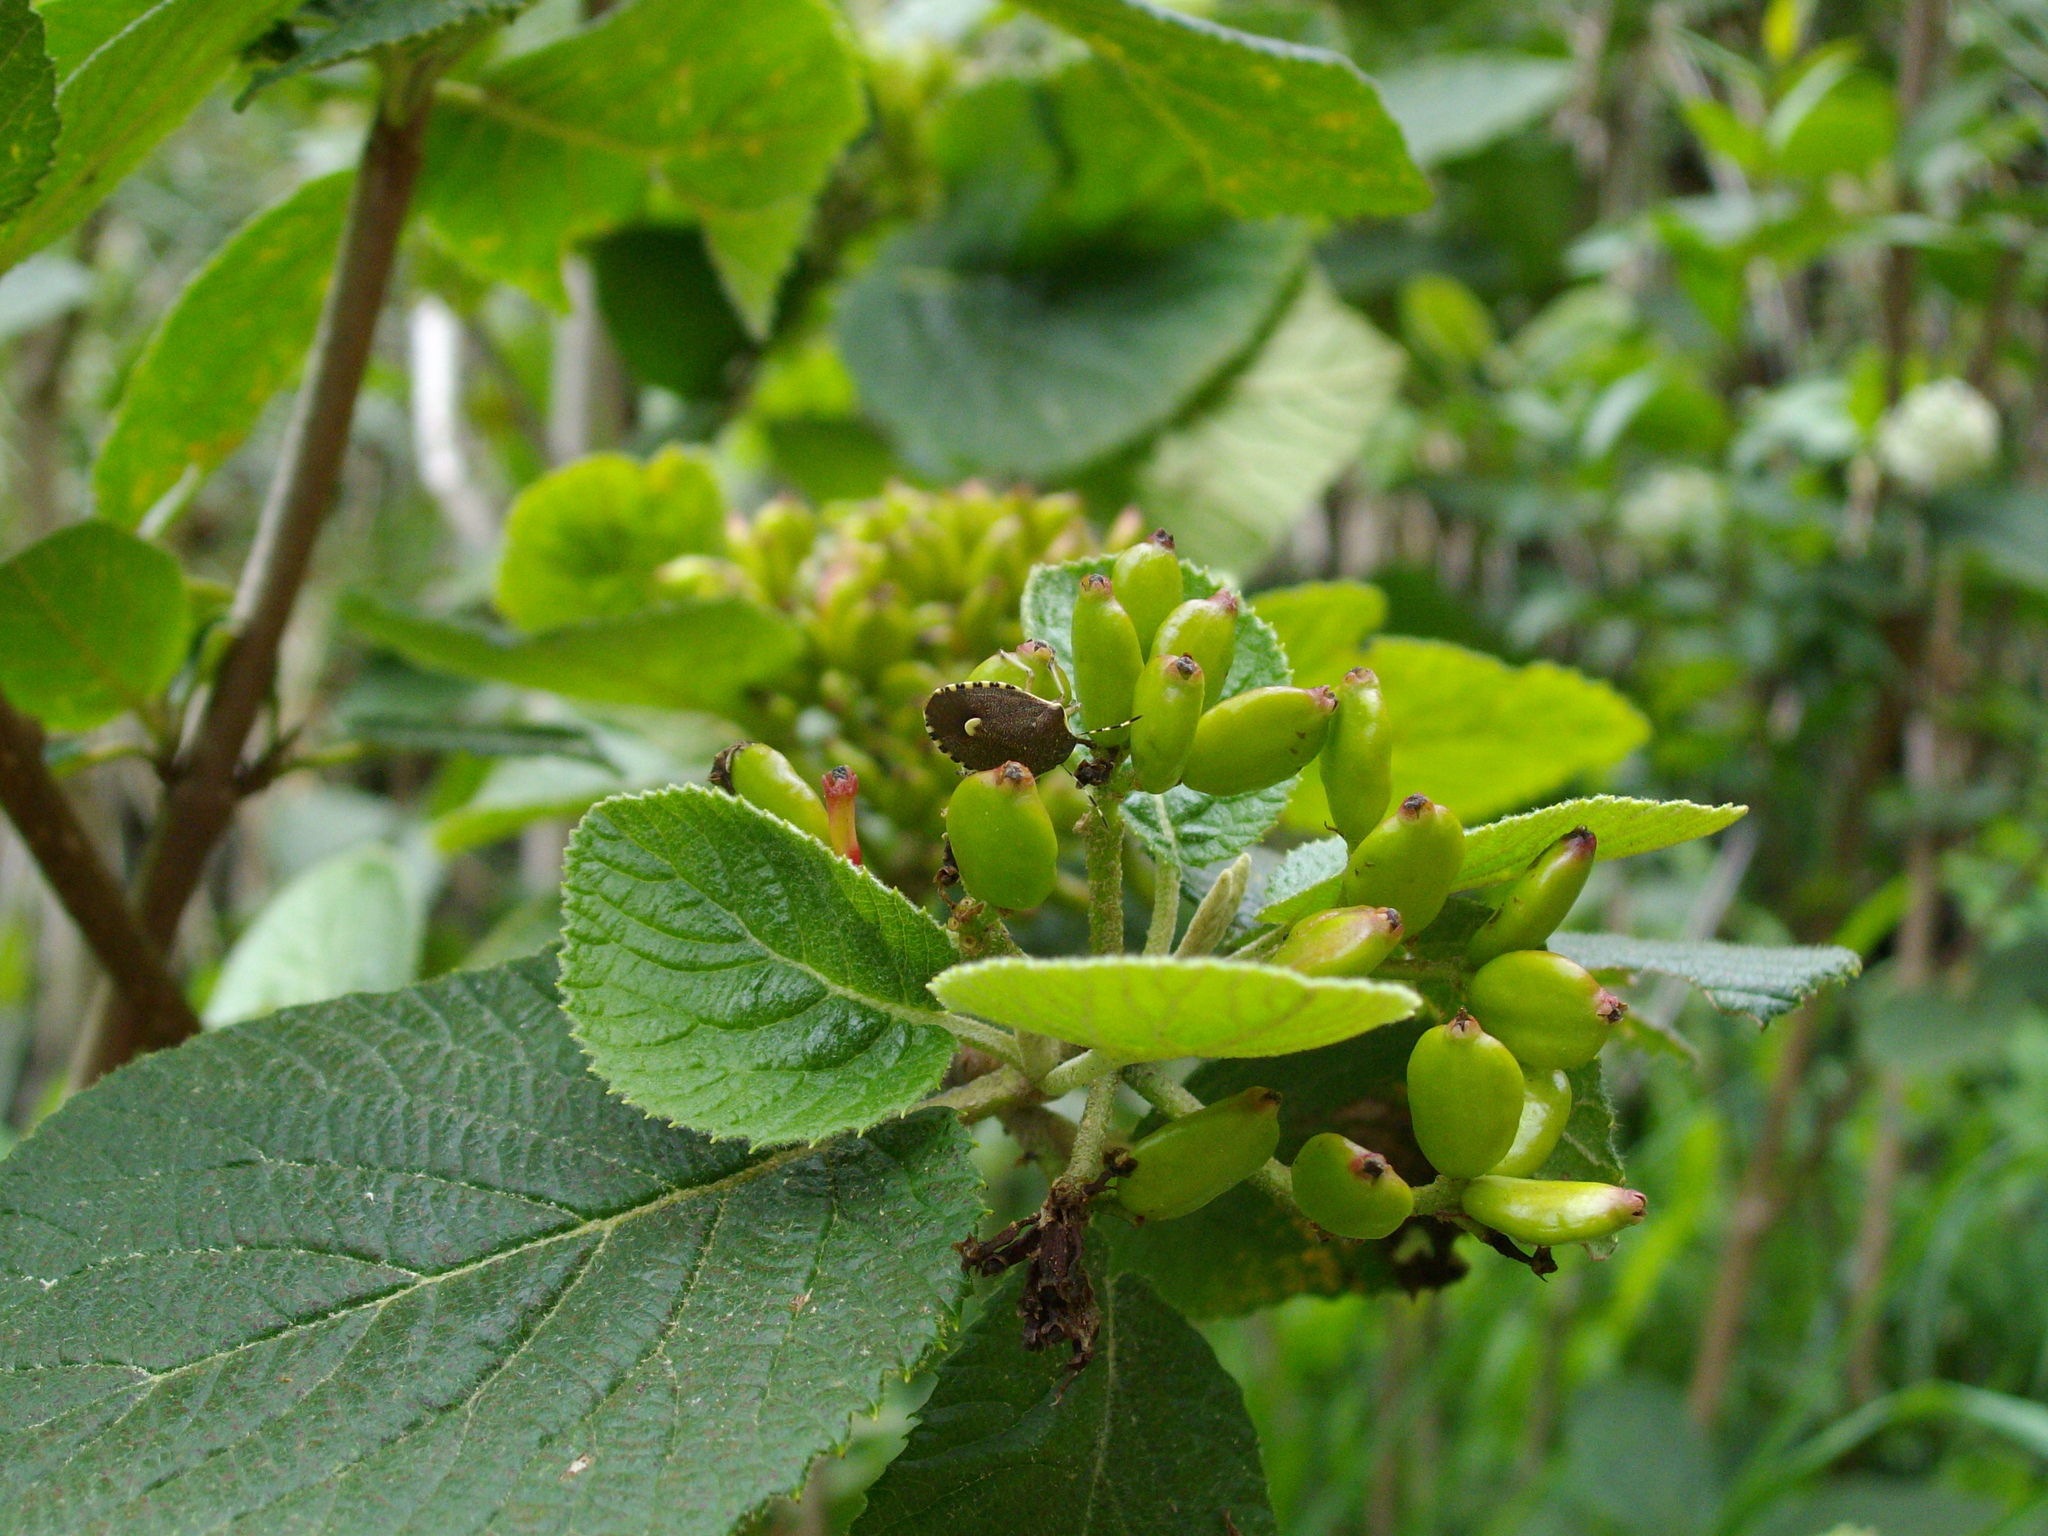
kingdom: Animalia
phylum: Arthropoda
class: Insecta
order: Hemiptera
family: Pentatomidae
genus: Holcostethus
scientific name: Holcostethus sphacelatus
